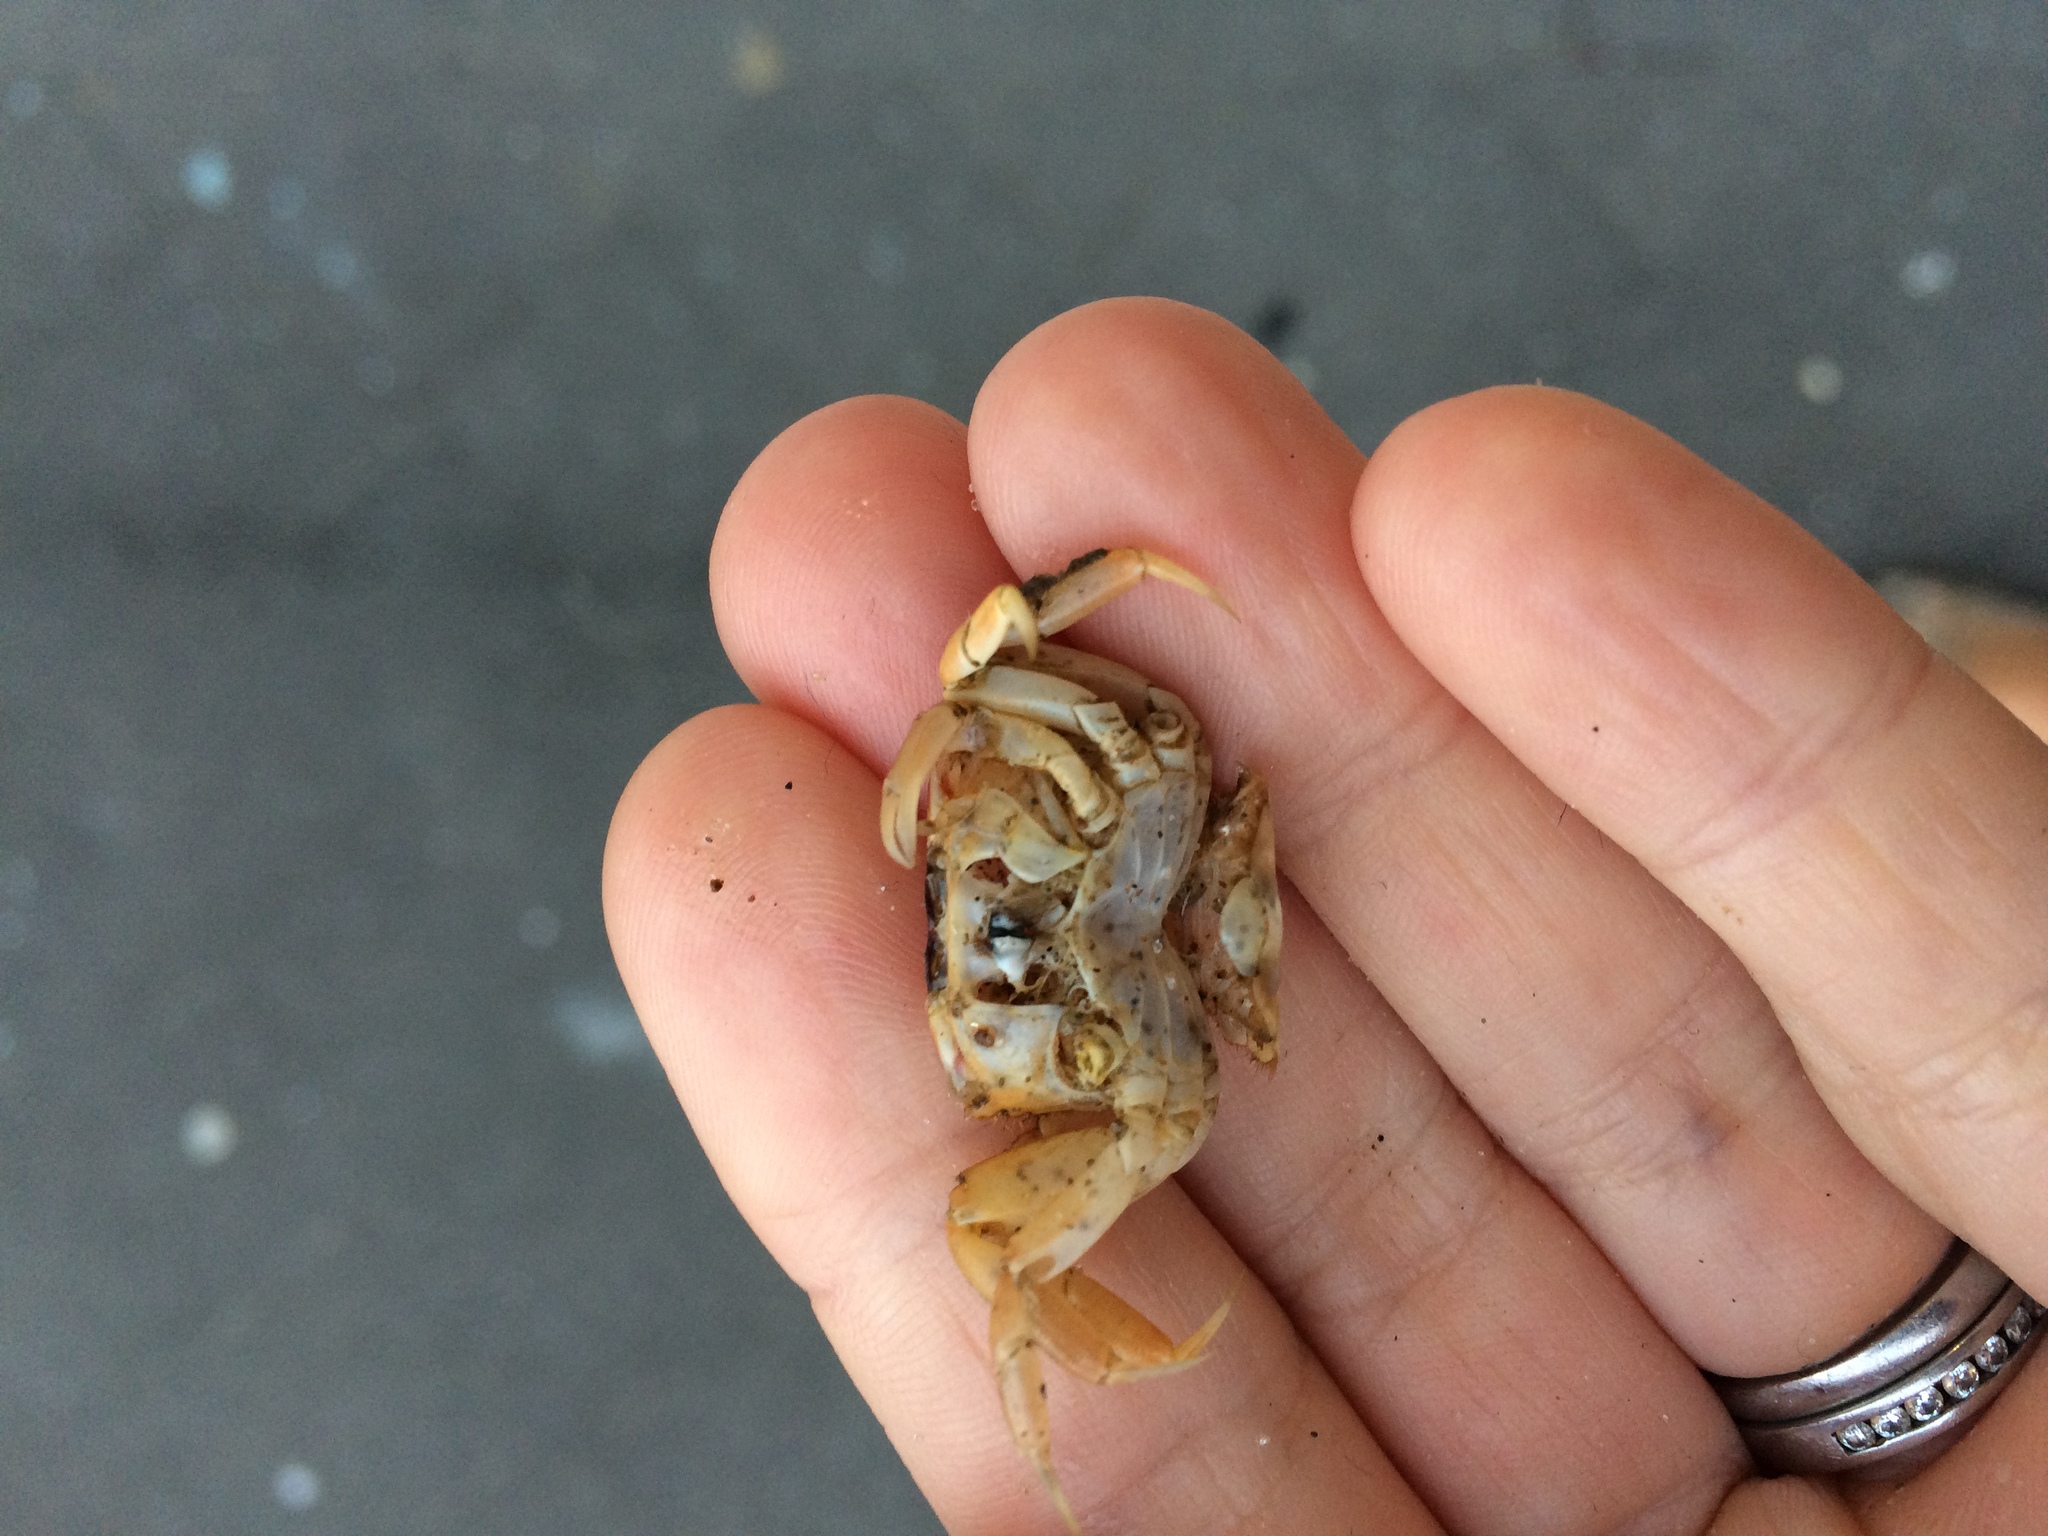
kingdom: Animalia
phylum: Arthropoda
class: Malacostraca
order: Decapoda
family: Macrophthalmidae
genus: Hemiplax
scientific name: Hemiplax hirtipes
